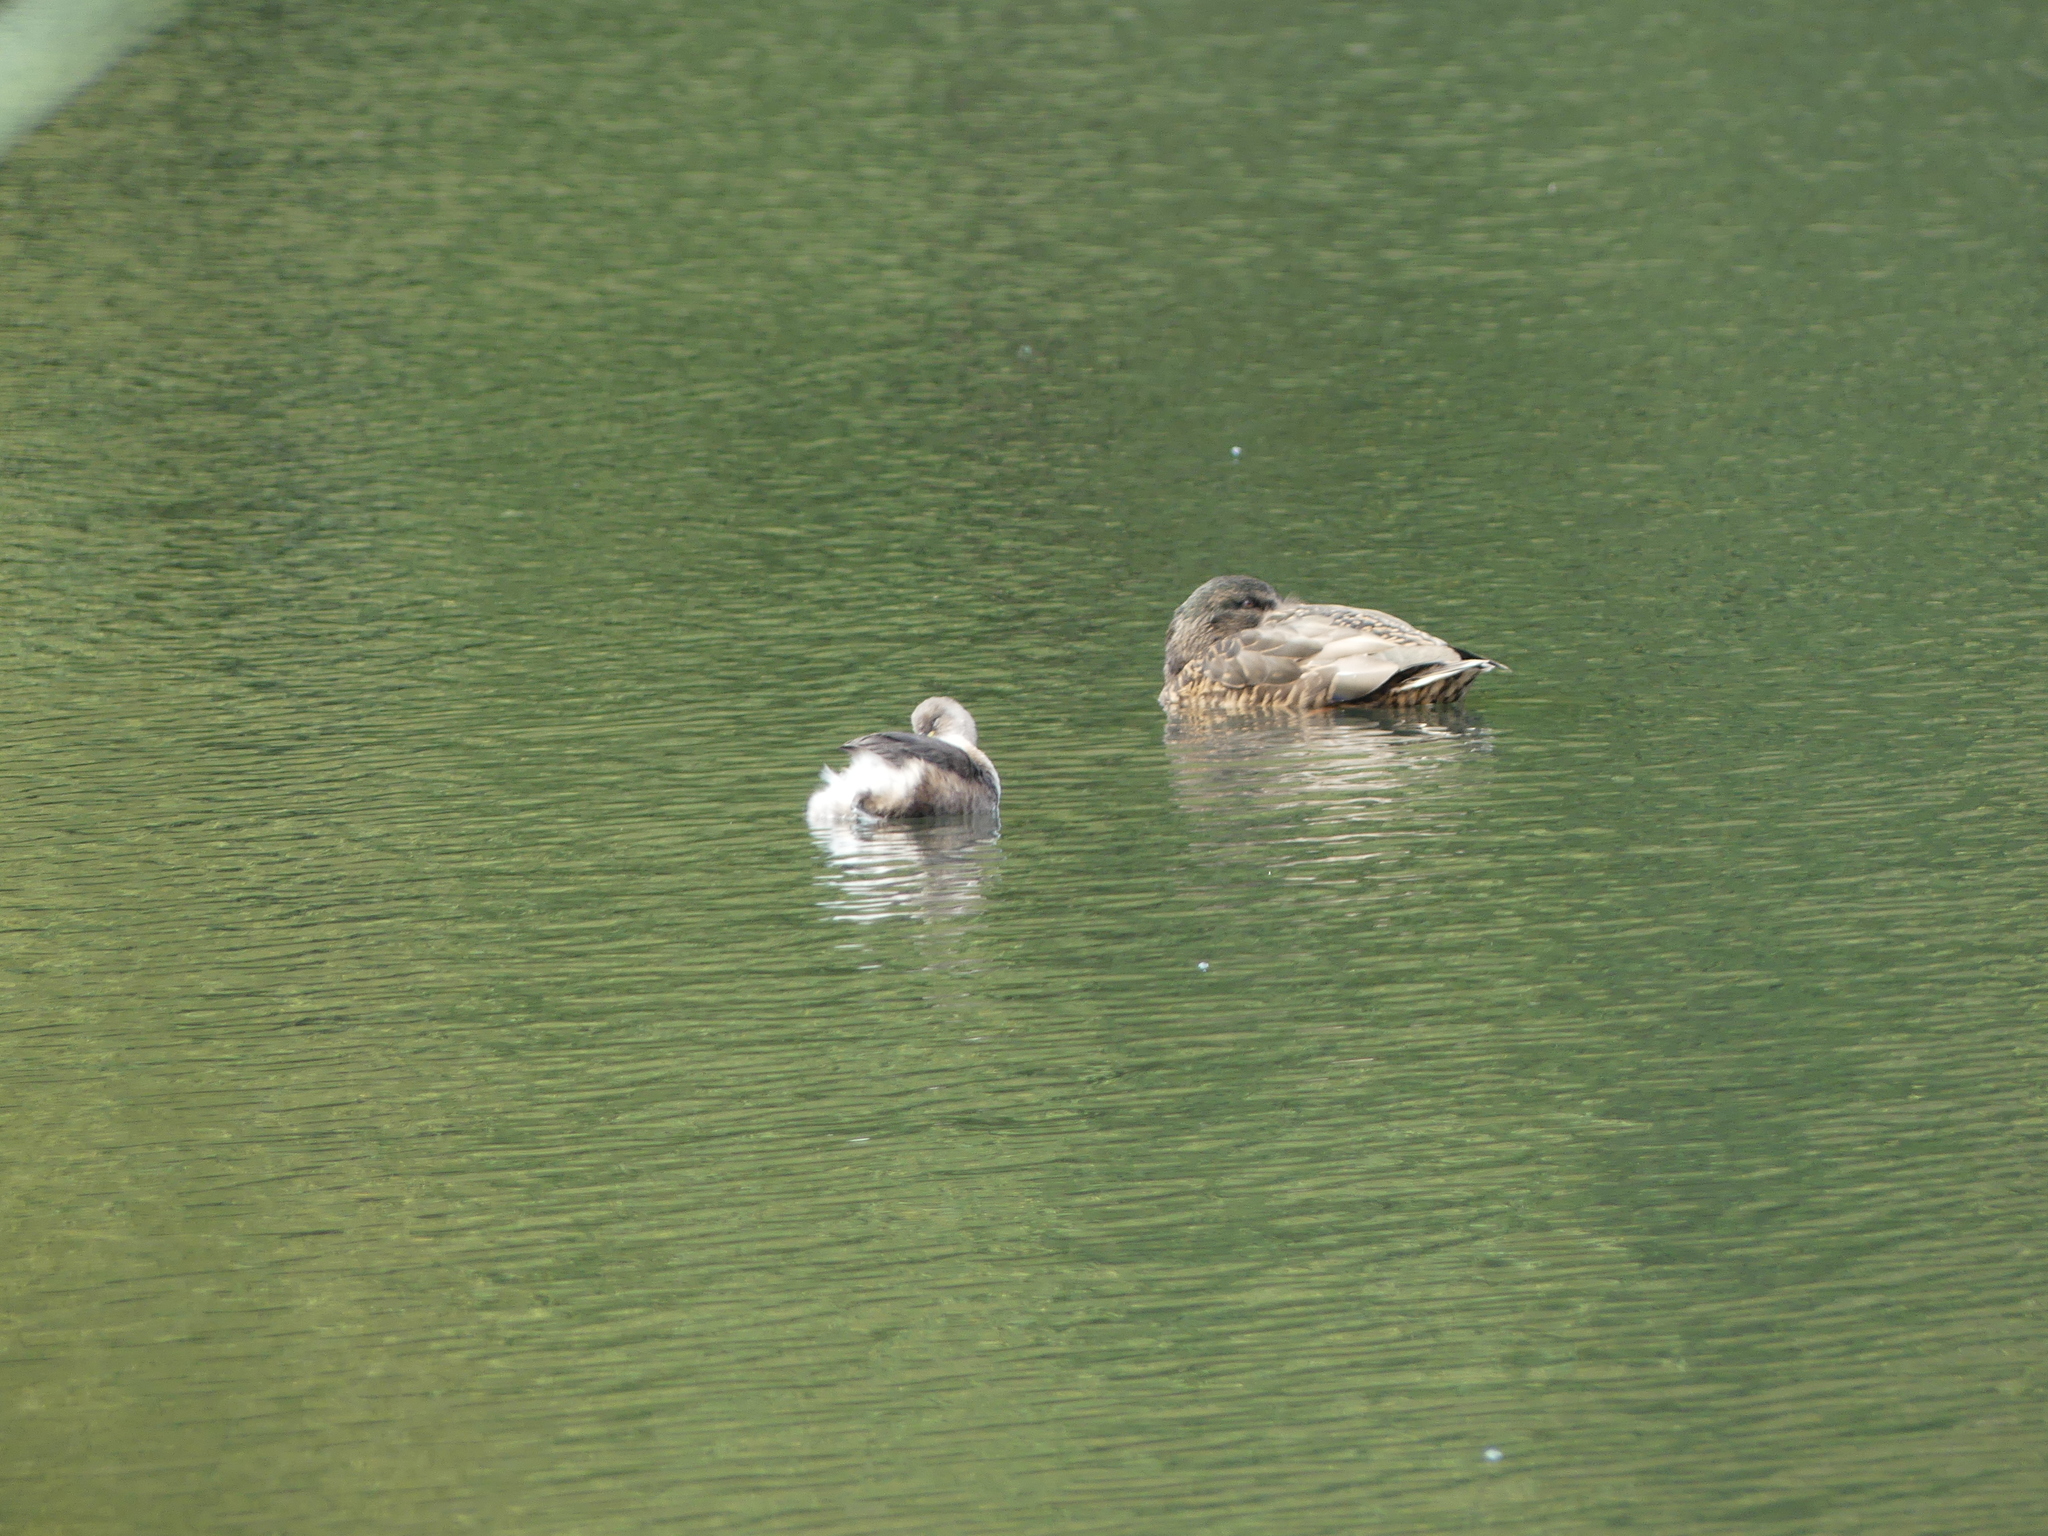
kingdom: Animalia
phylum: Chordata
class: Aves
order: Podicipediformes
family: Podicipedidae
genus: Tachybaptus
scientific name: Tachybaptus ruficollis
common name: Little grebe
